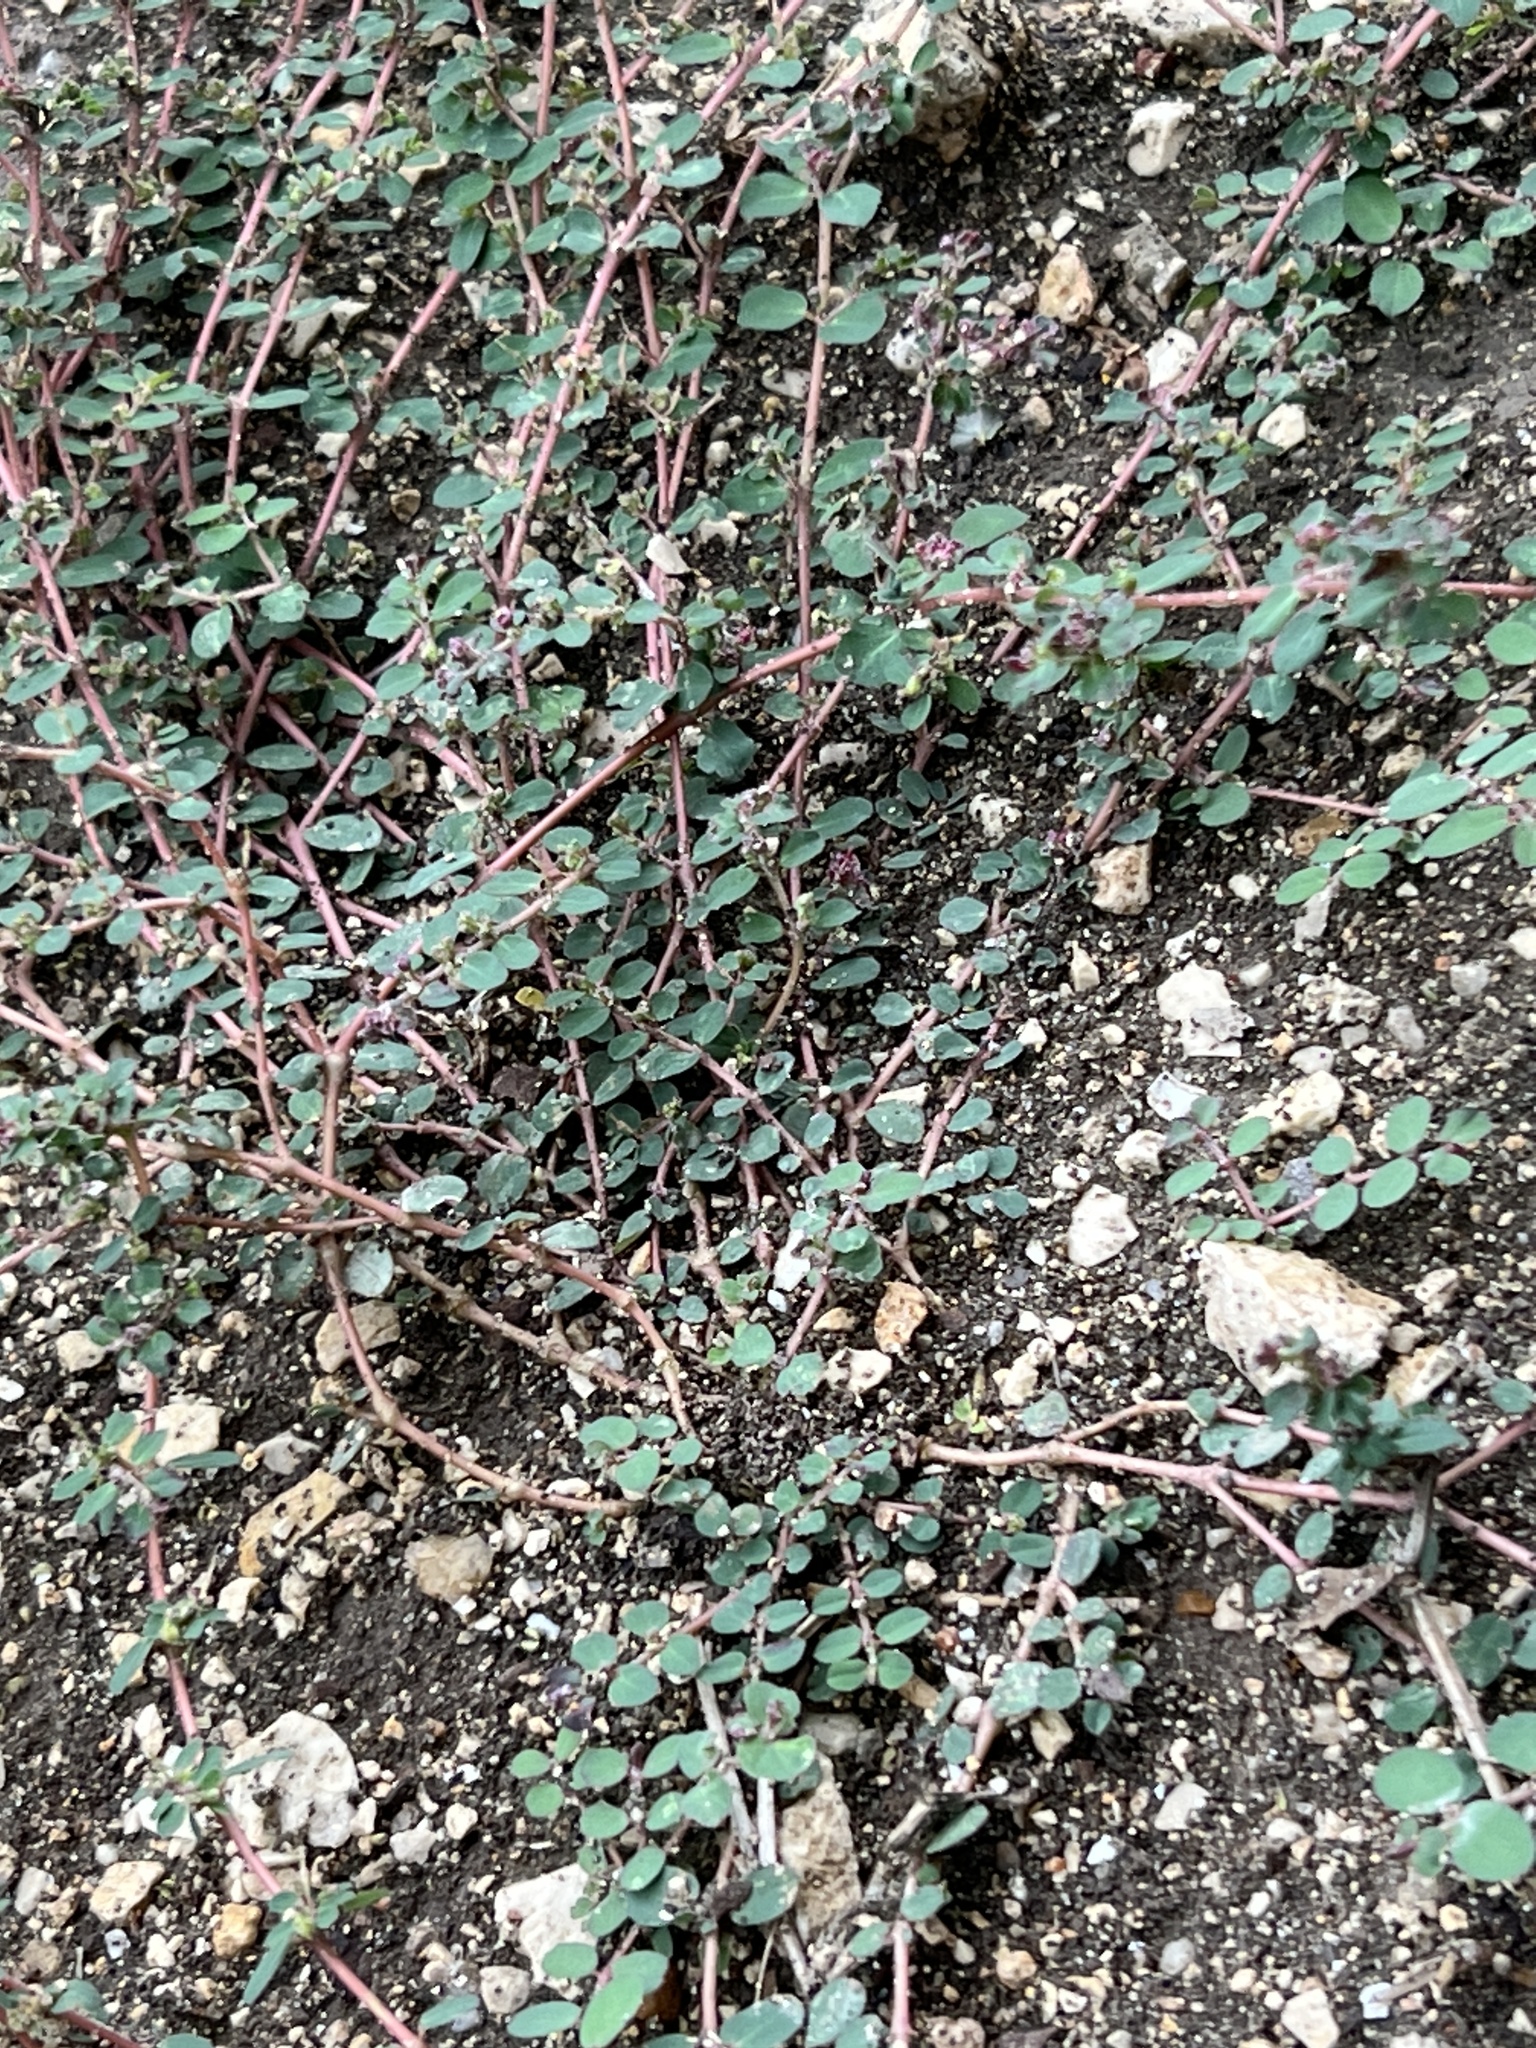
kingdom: Plantae
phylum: Tracheophyta
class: Magnoliopsida
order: Malpighiales
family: Euphorbiaceae
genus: Euphorbia
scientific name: Euphorbia prostrata
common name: Prostrate sandmat
